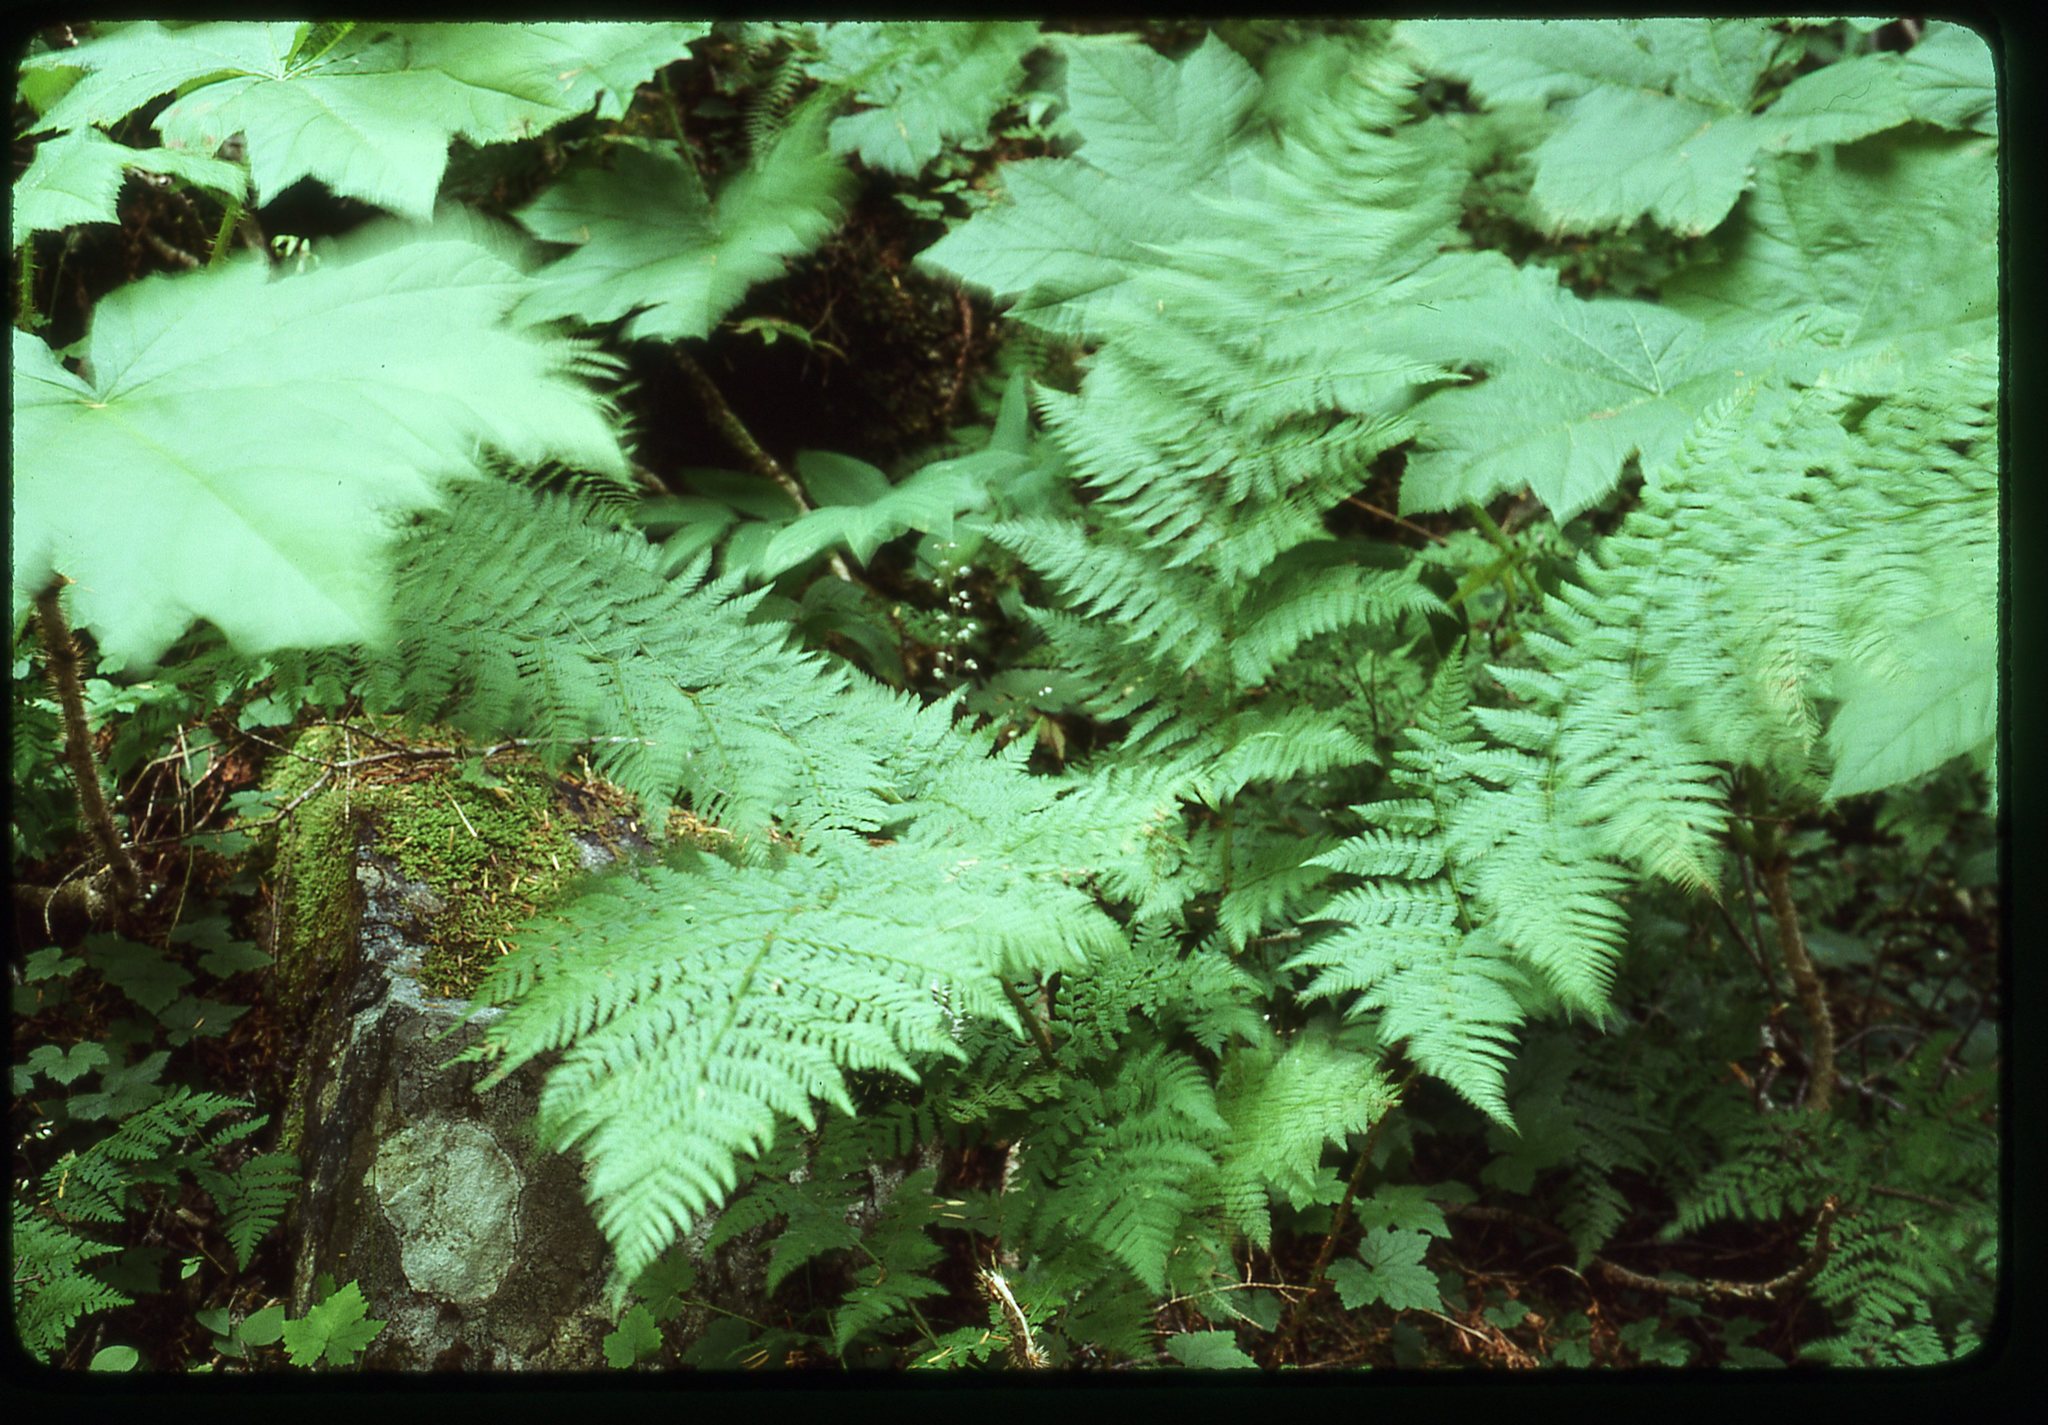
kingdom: Plantae
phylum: Tracheophyta
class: Polypodiopsida
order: Polypodiales
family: Dryopteridaceae
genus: Dryopteris
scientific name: Dryopteris expansa
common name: Northern buckler fern
